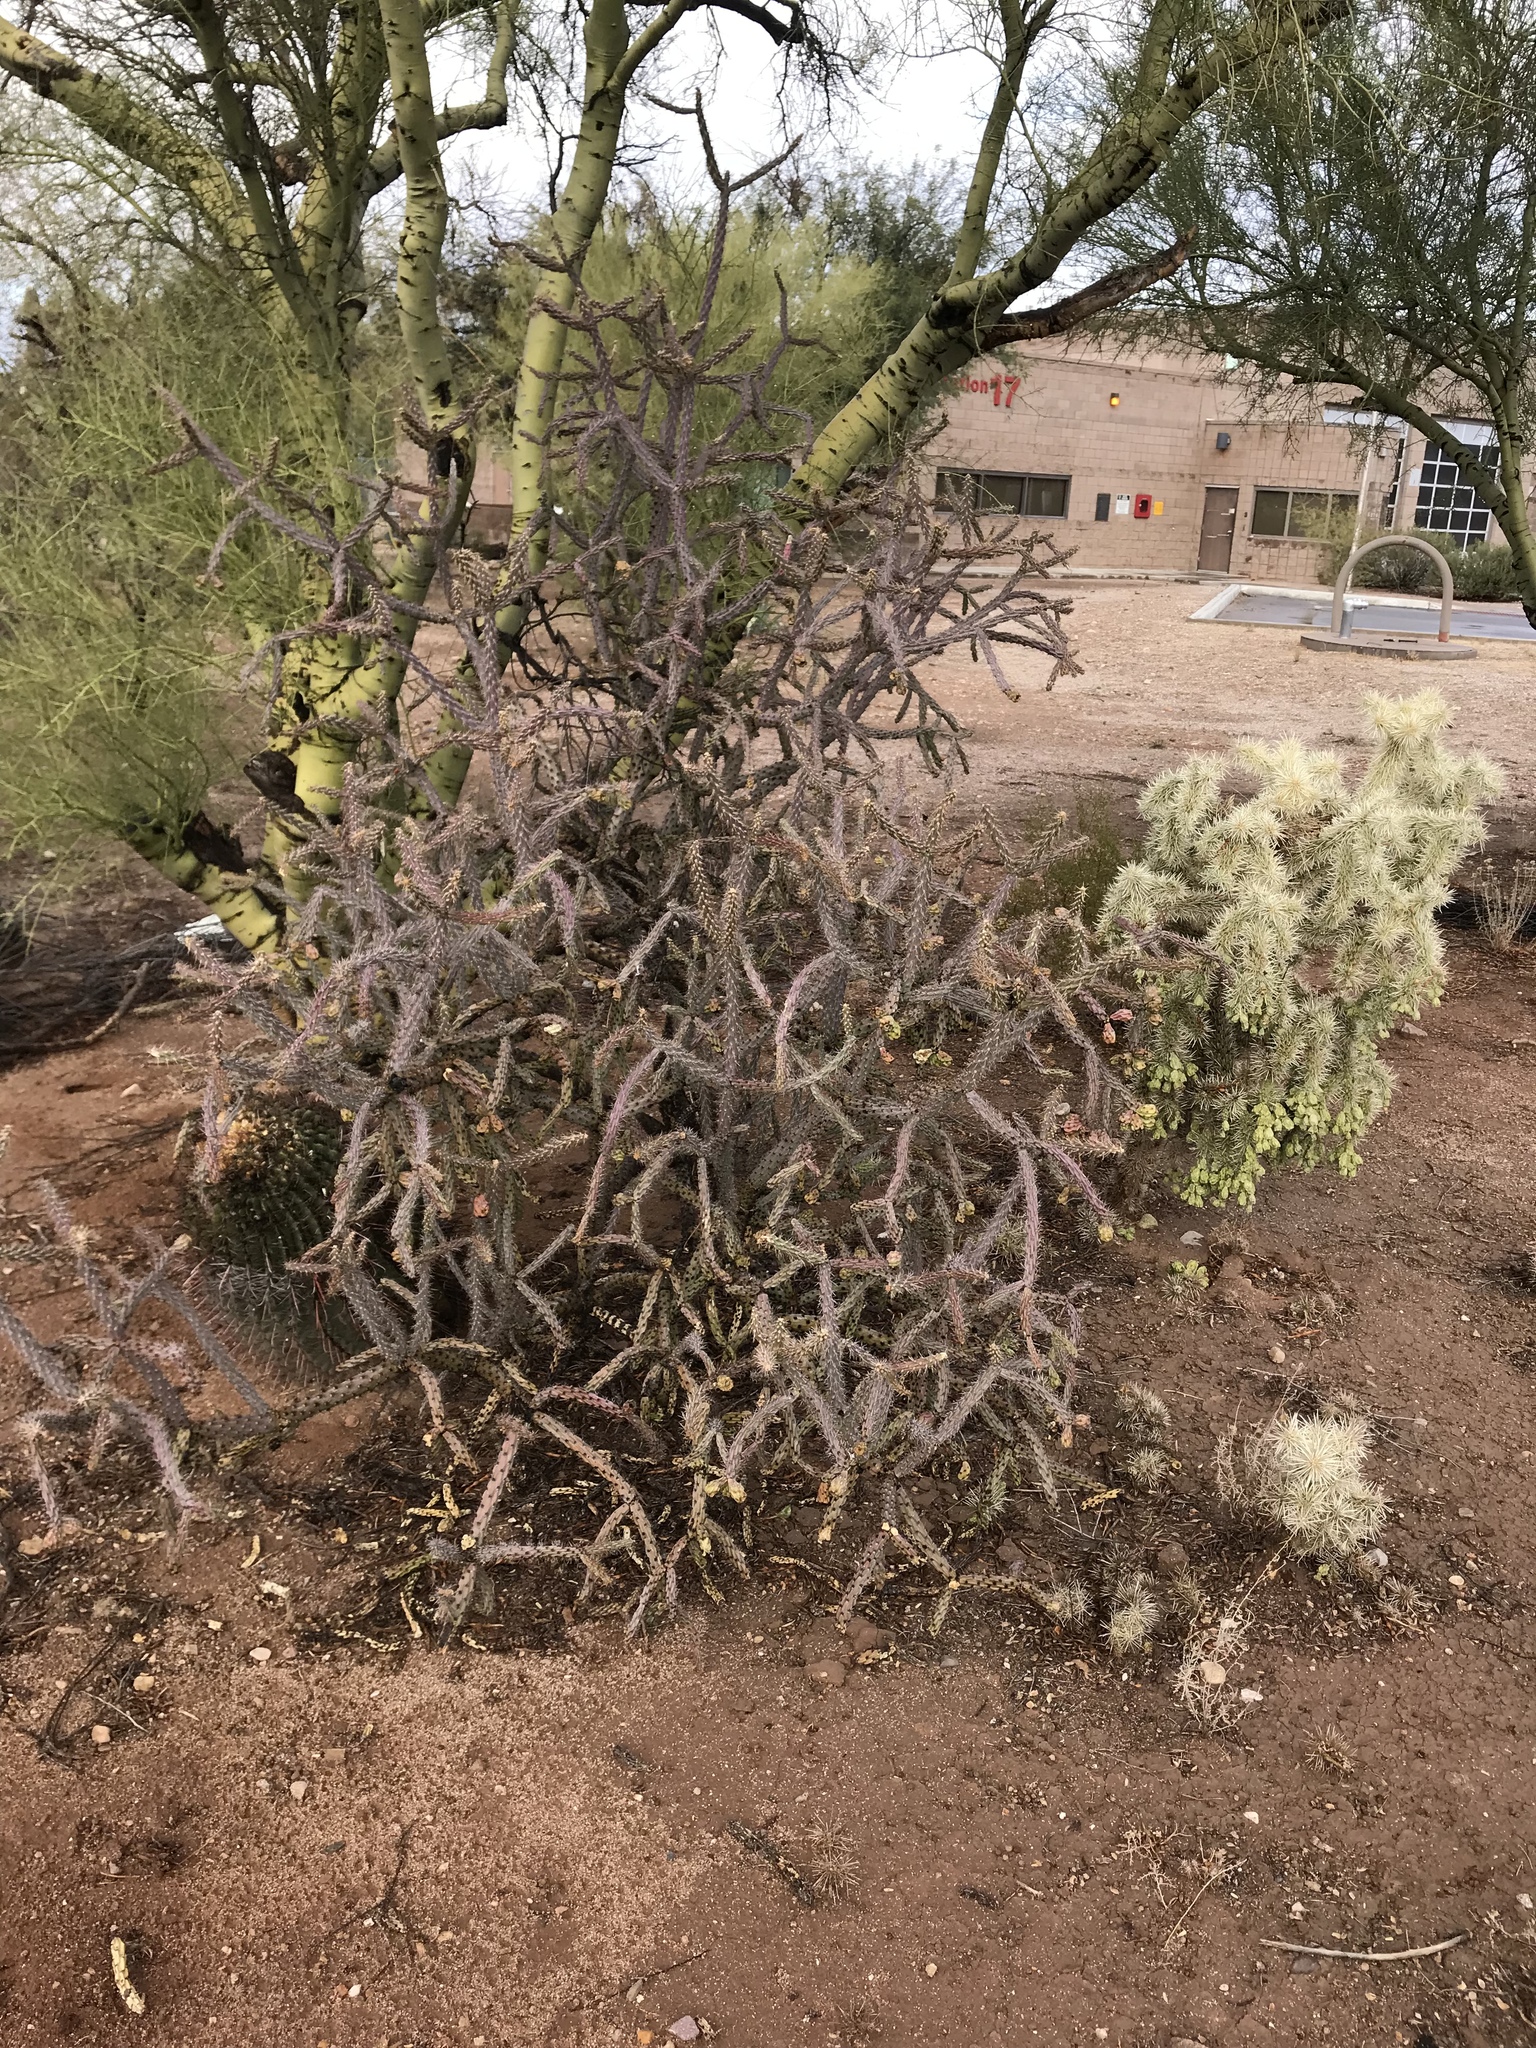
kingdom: Plantae
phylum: Tracheophyta
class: Magnoliopsida
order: Caryophyllales
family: Cactaceae
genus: Cylindropuntia
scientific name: Cylindropuntia thurberi
